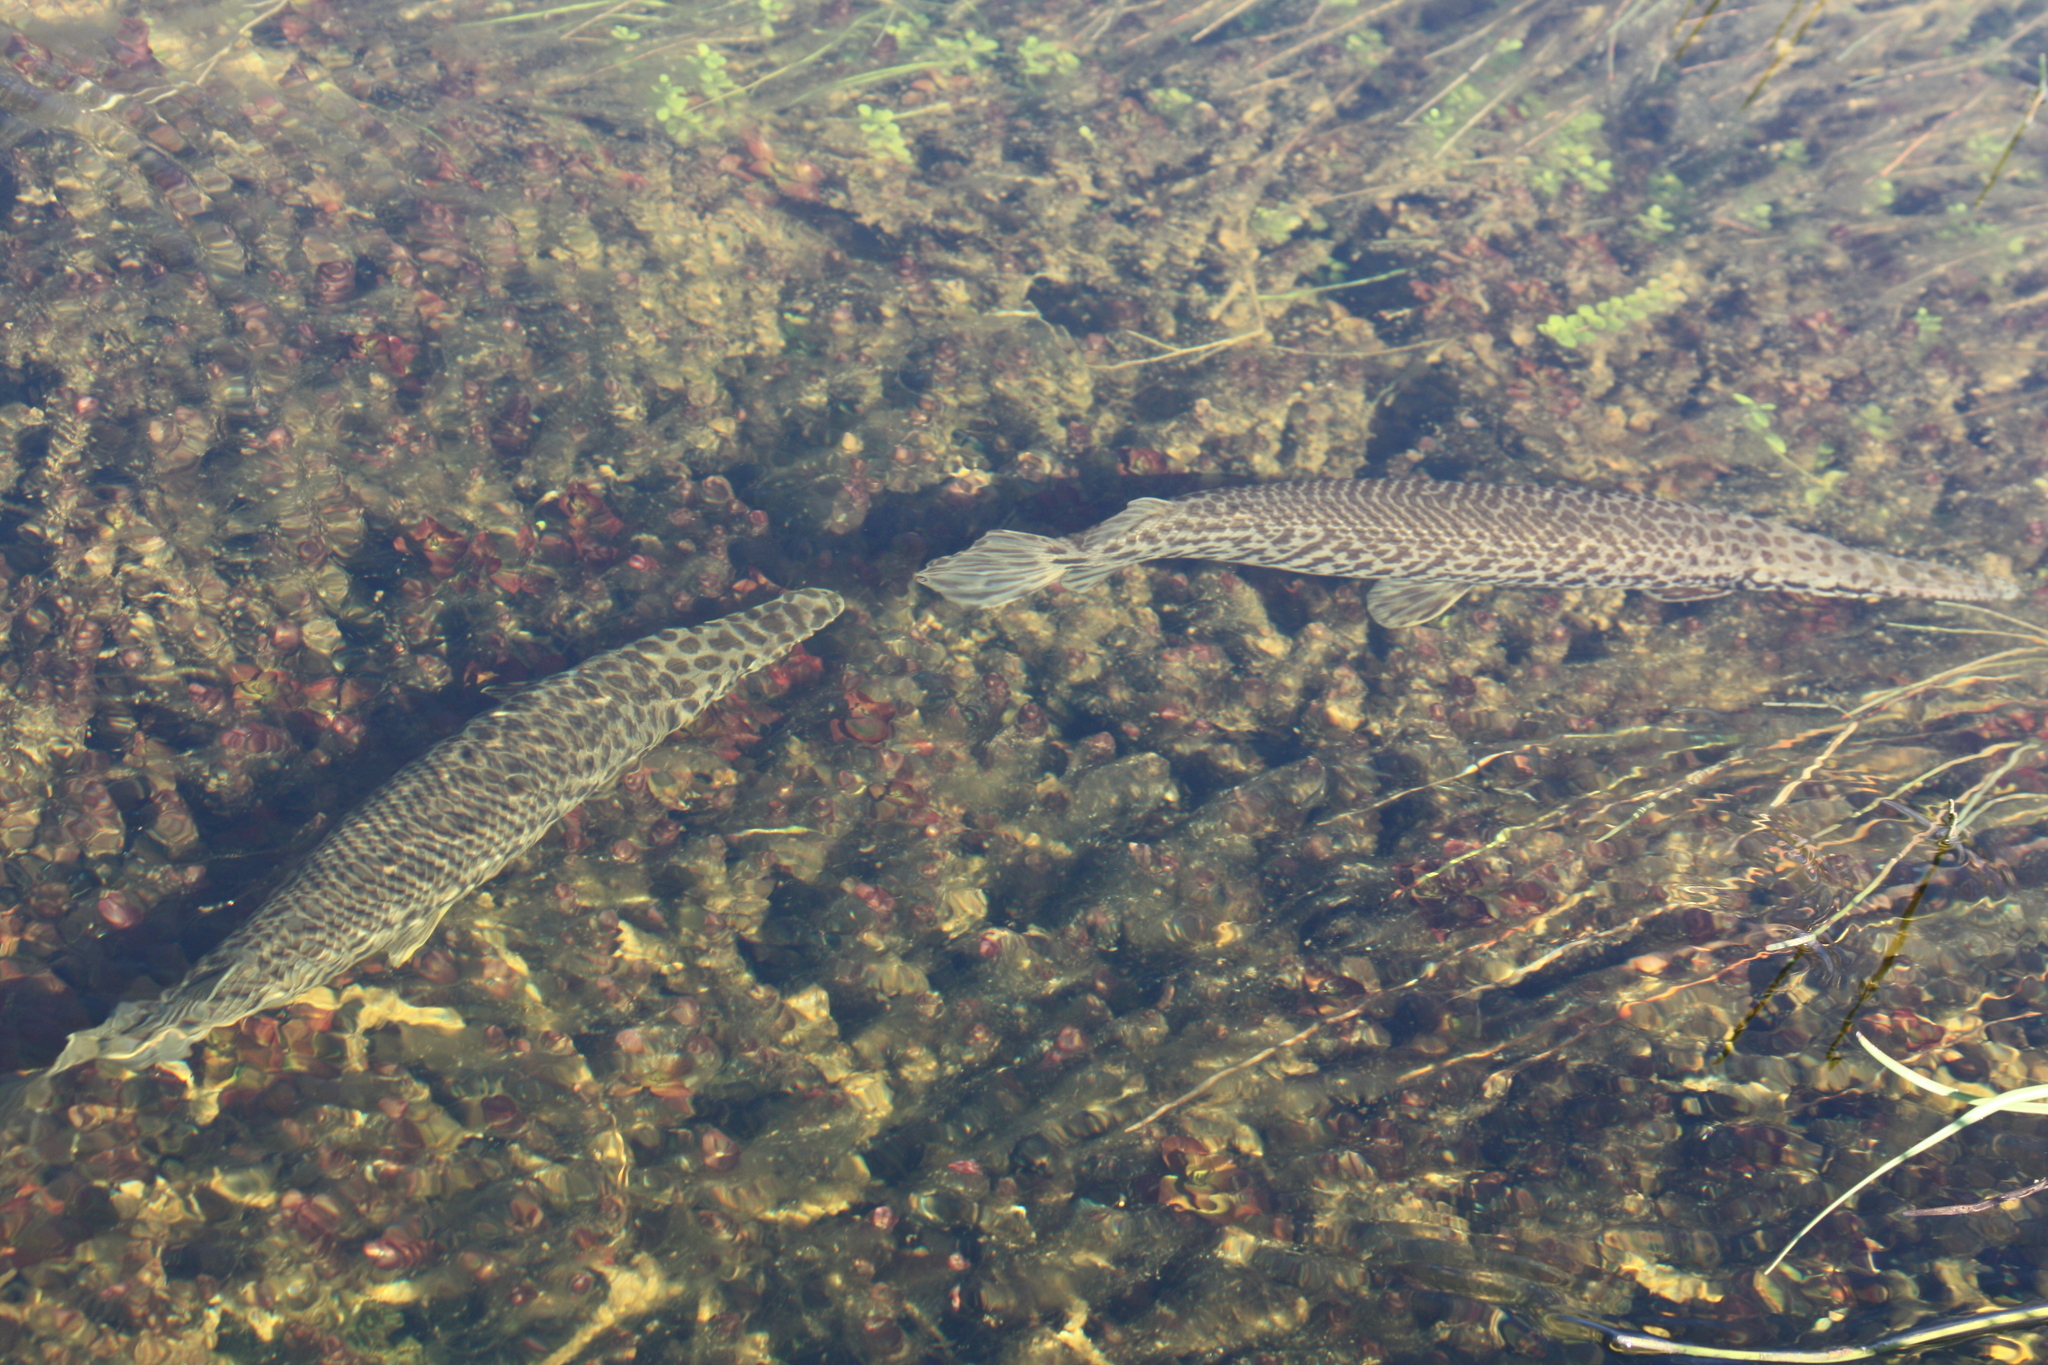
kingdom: Animalia
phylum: Chordata
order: Lepisosteiformes
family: Lepisosteidae
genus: Lepisosteus
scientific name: Lepisosteus platyrhincus
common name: Florida gar
